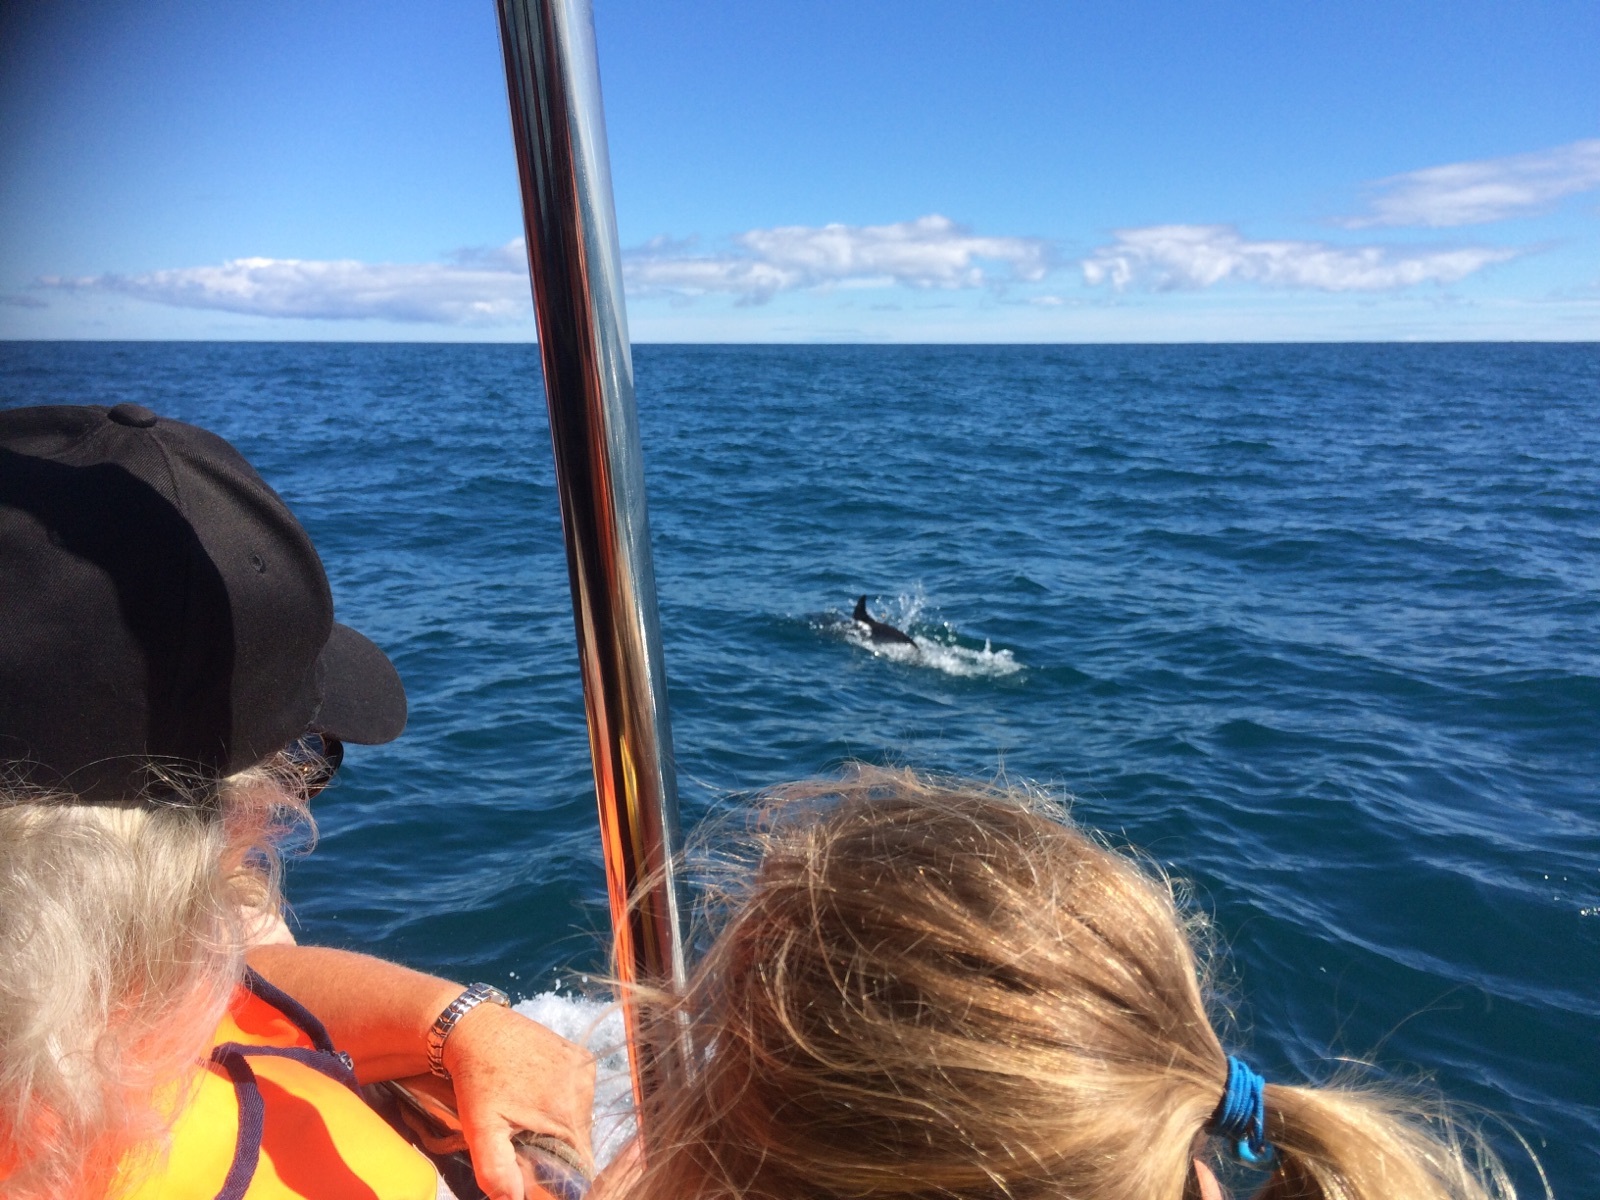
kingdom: Animalia
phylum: Chordata
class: Mammalia
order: Cetacea
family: Delphinidae
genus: Orcinus
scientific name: Orcinus orca
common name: Killer whale
